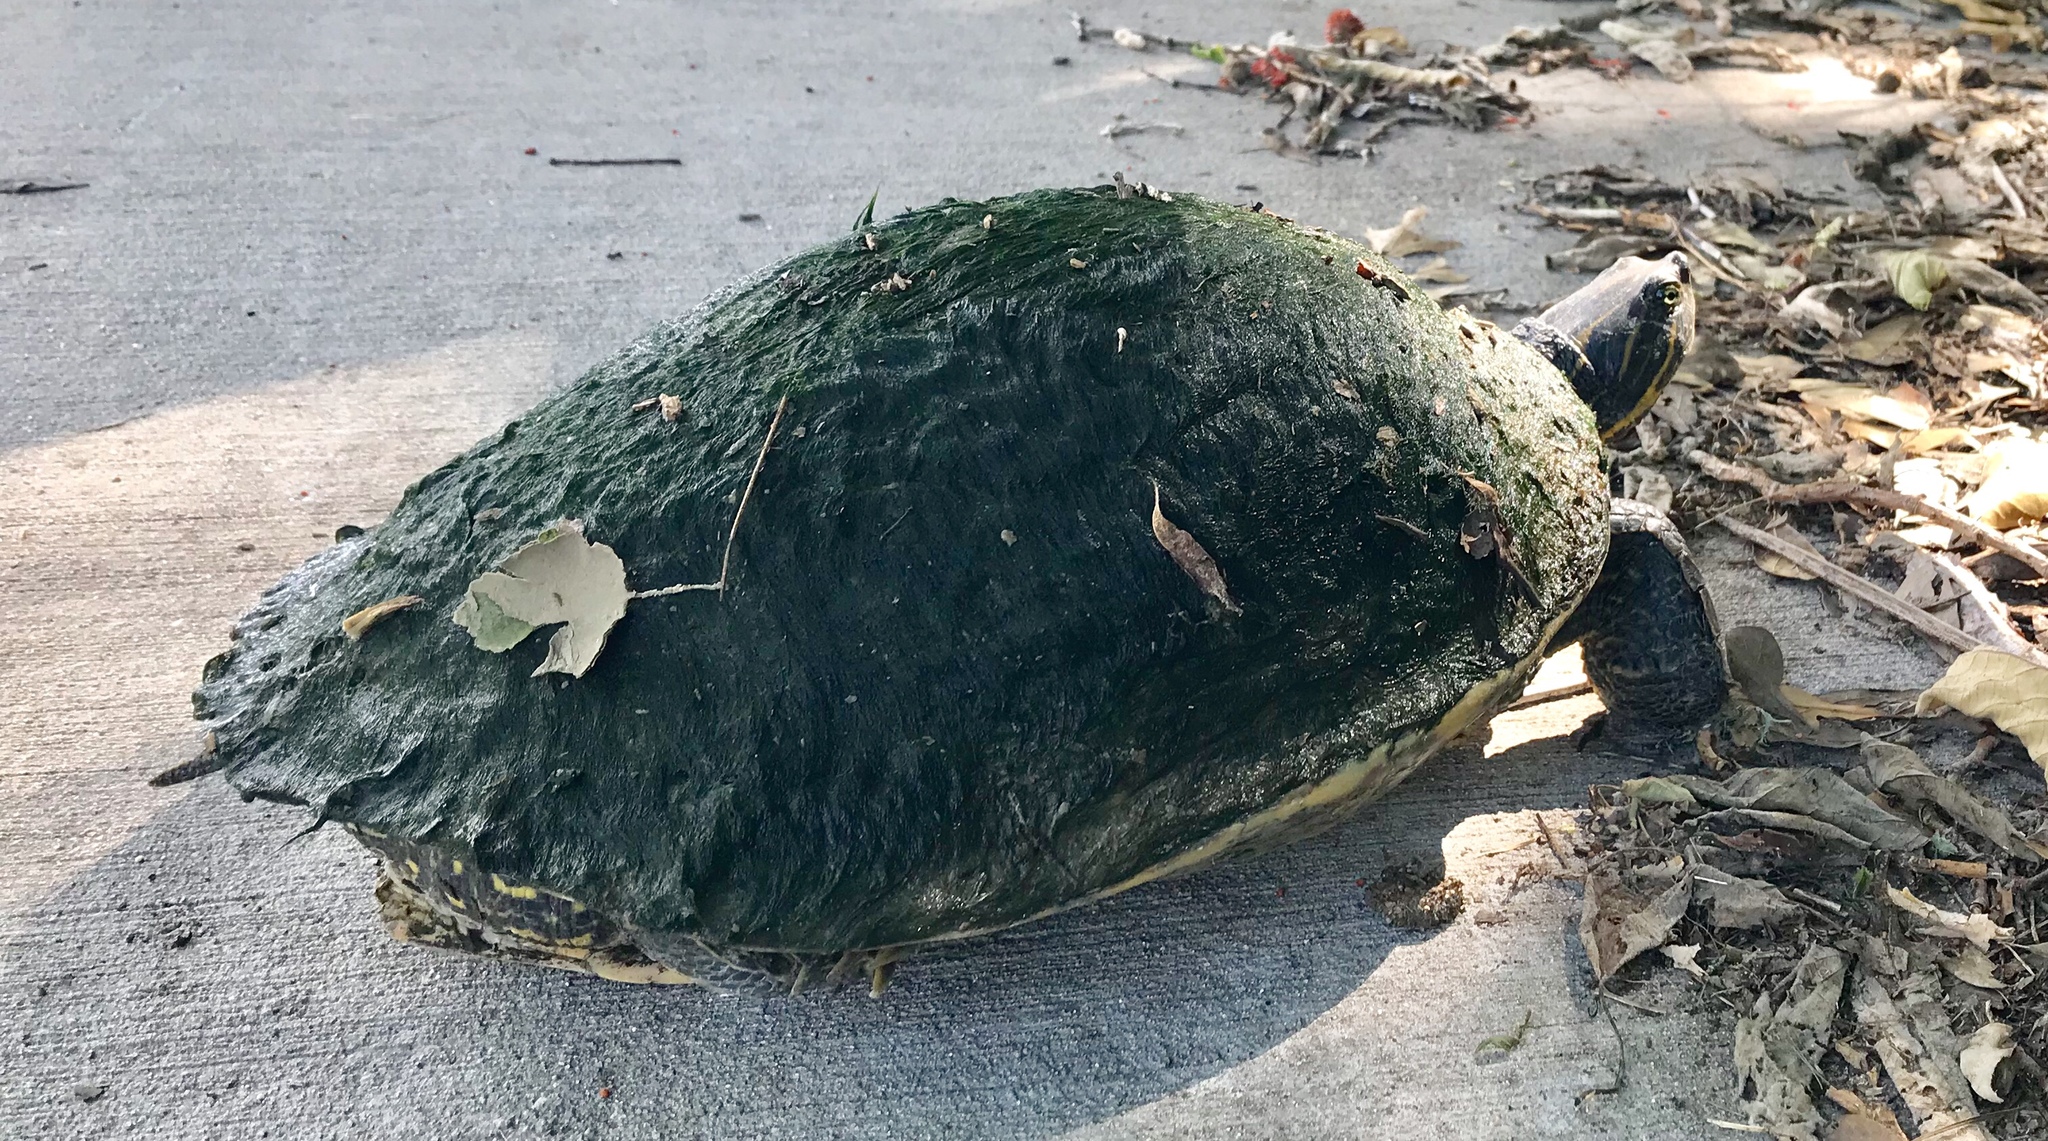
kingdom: Animalia
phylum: Chordata
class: Testudines
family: Emydidae
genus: Pseudemys
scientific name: Pseudemys concinna
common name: Eastern river cooter
